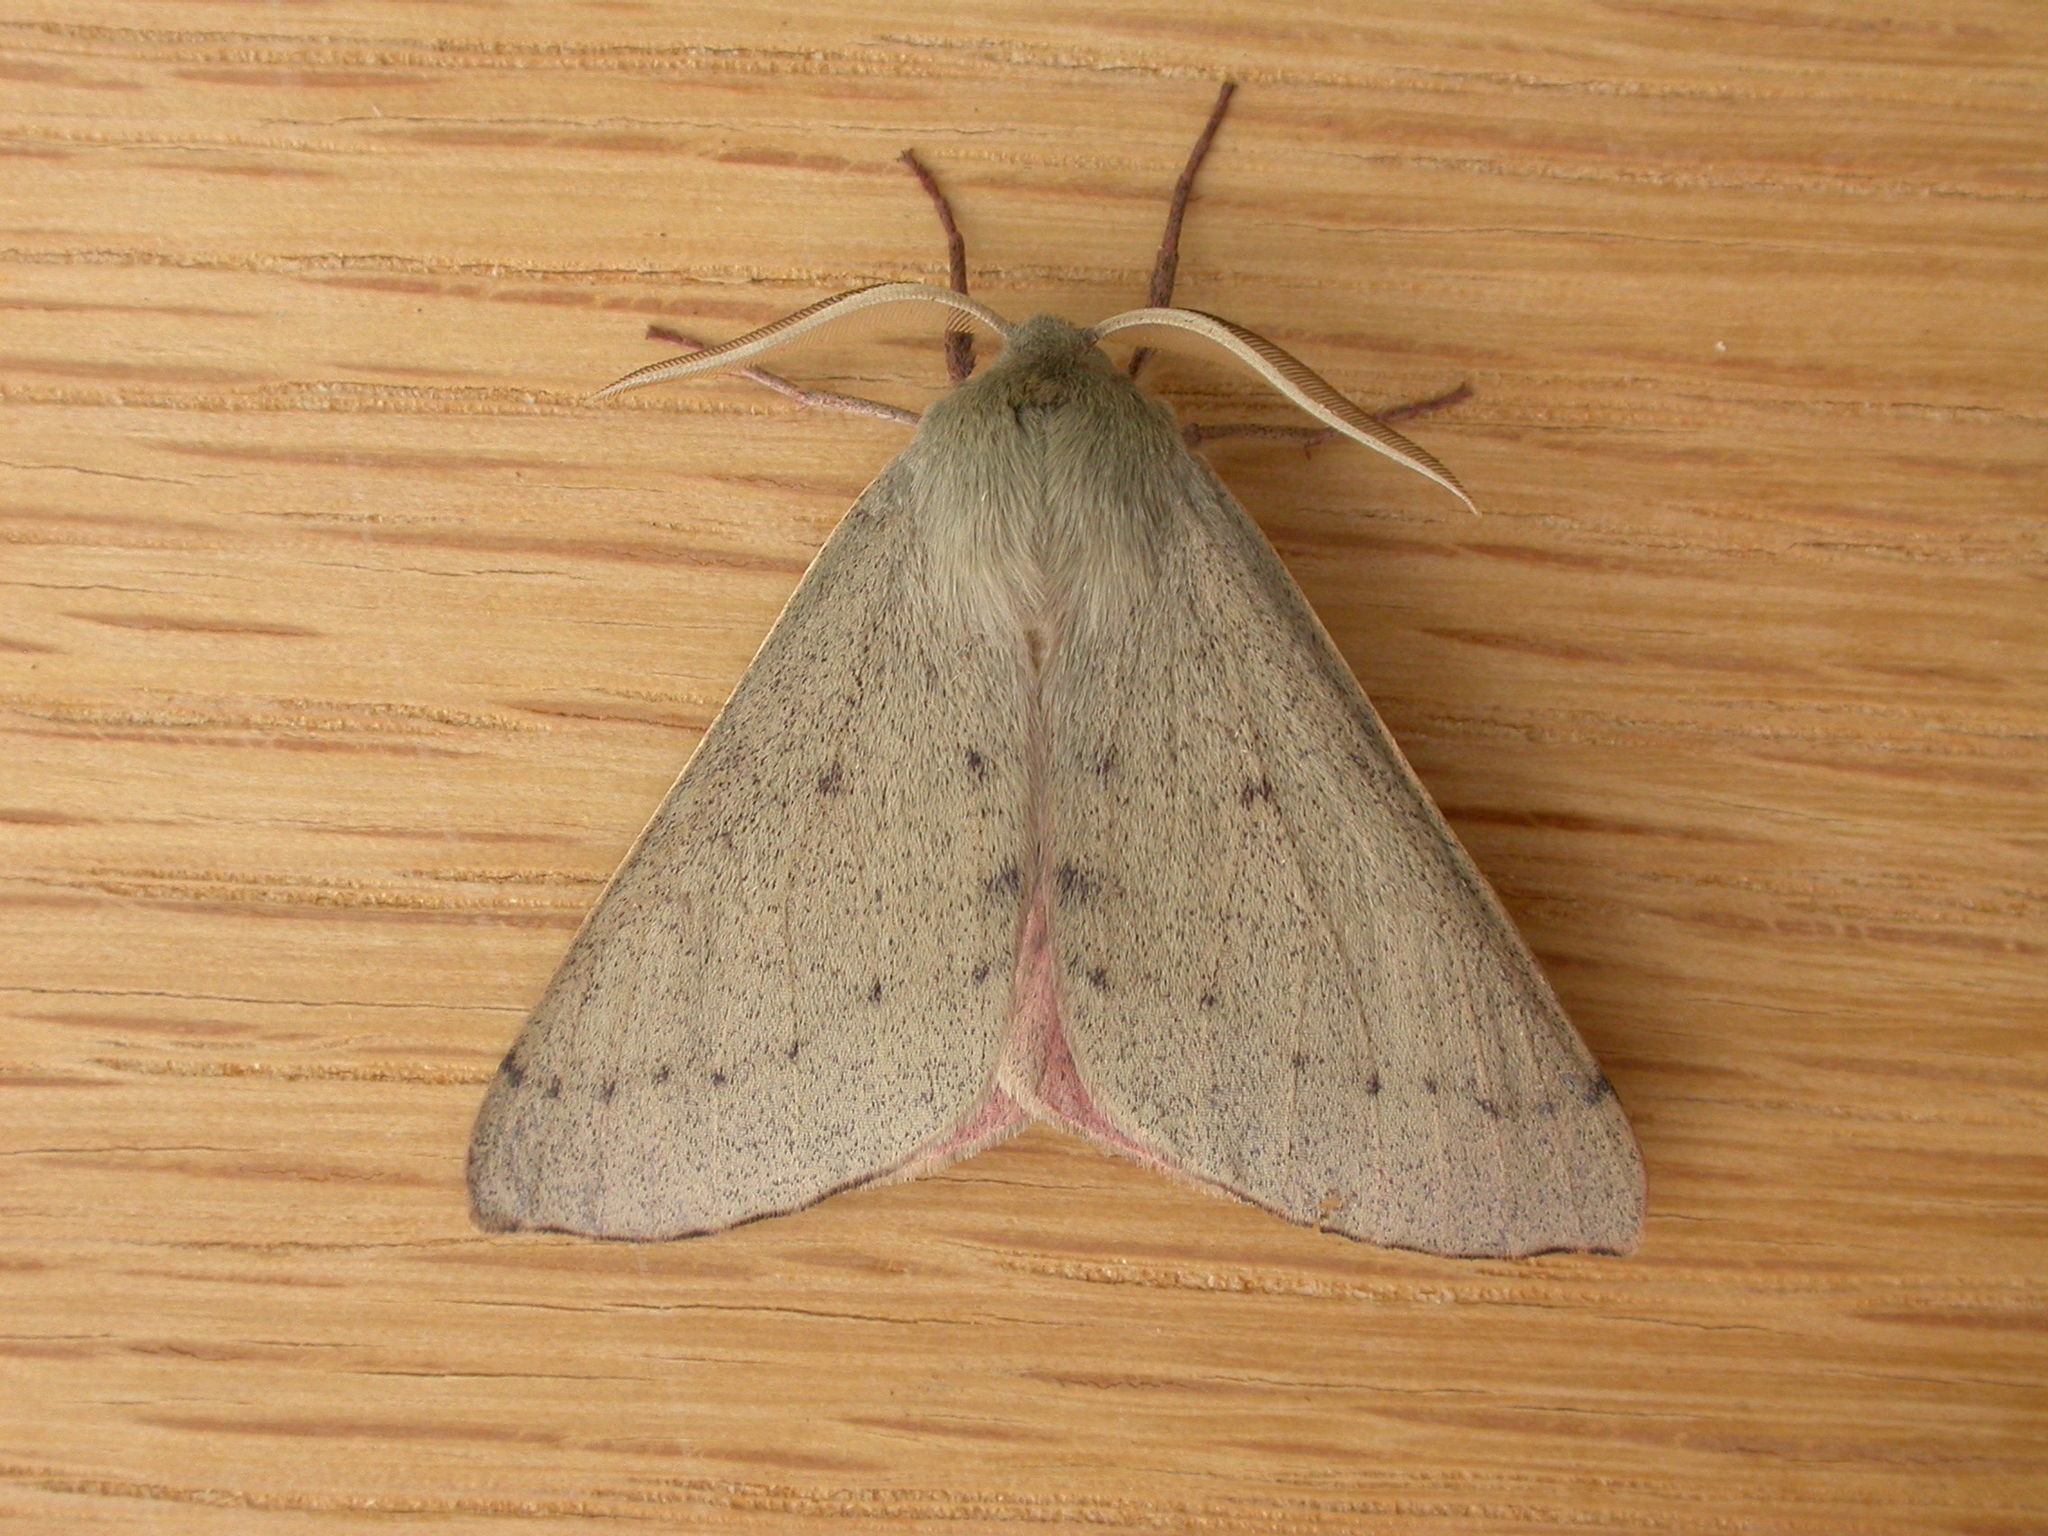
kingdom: Animalia
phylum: Arthropoda
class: Insecta
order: Lepidoptera
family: Geometridae
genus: Arhodia
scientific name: Arhodia lasiocamparia
